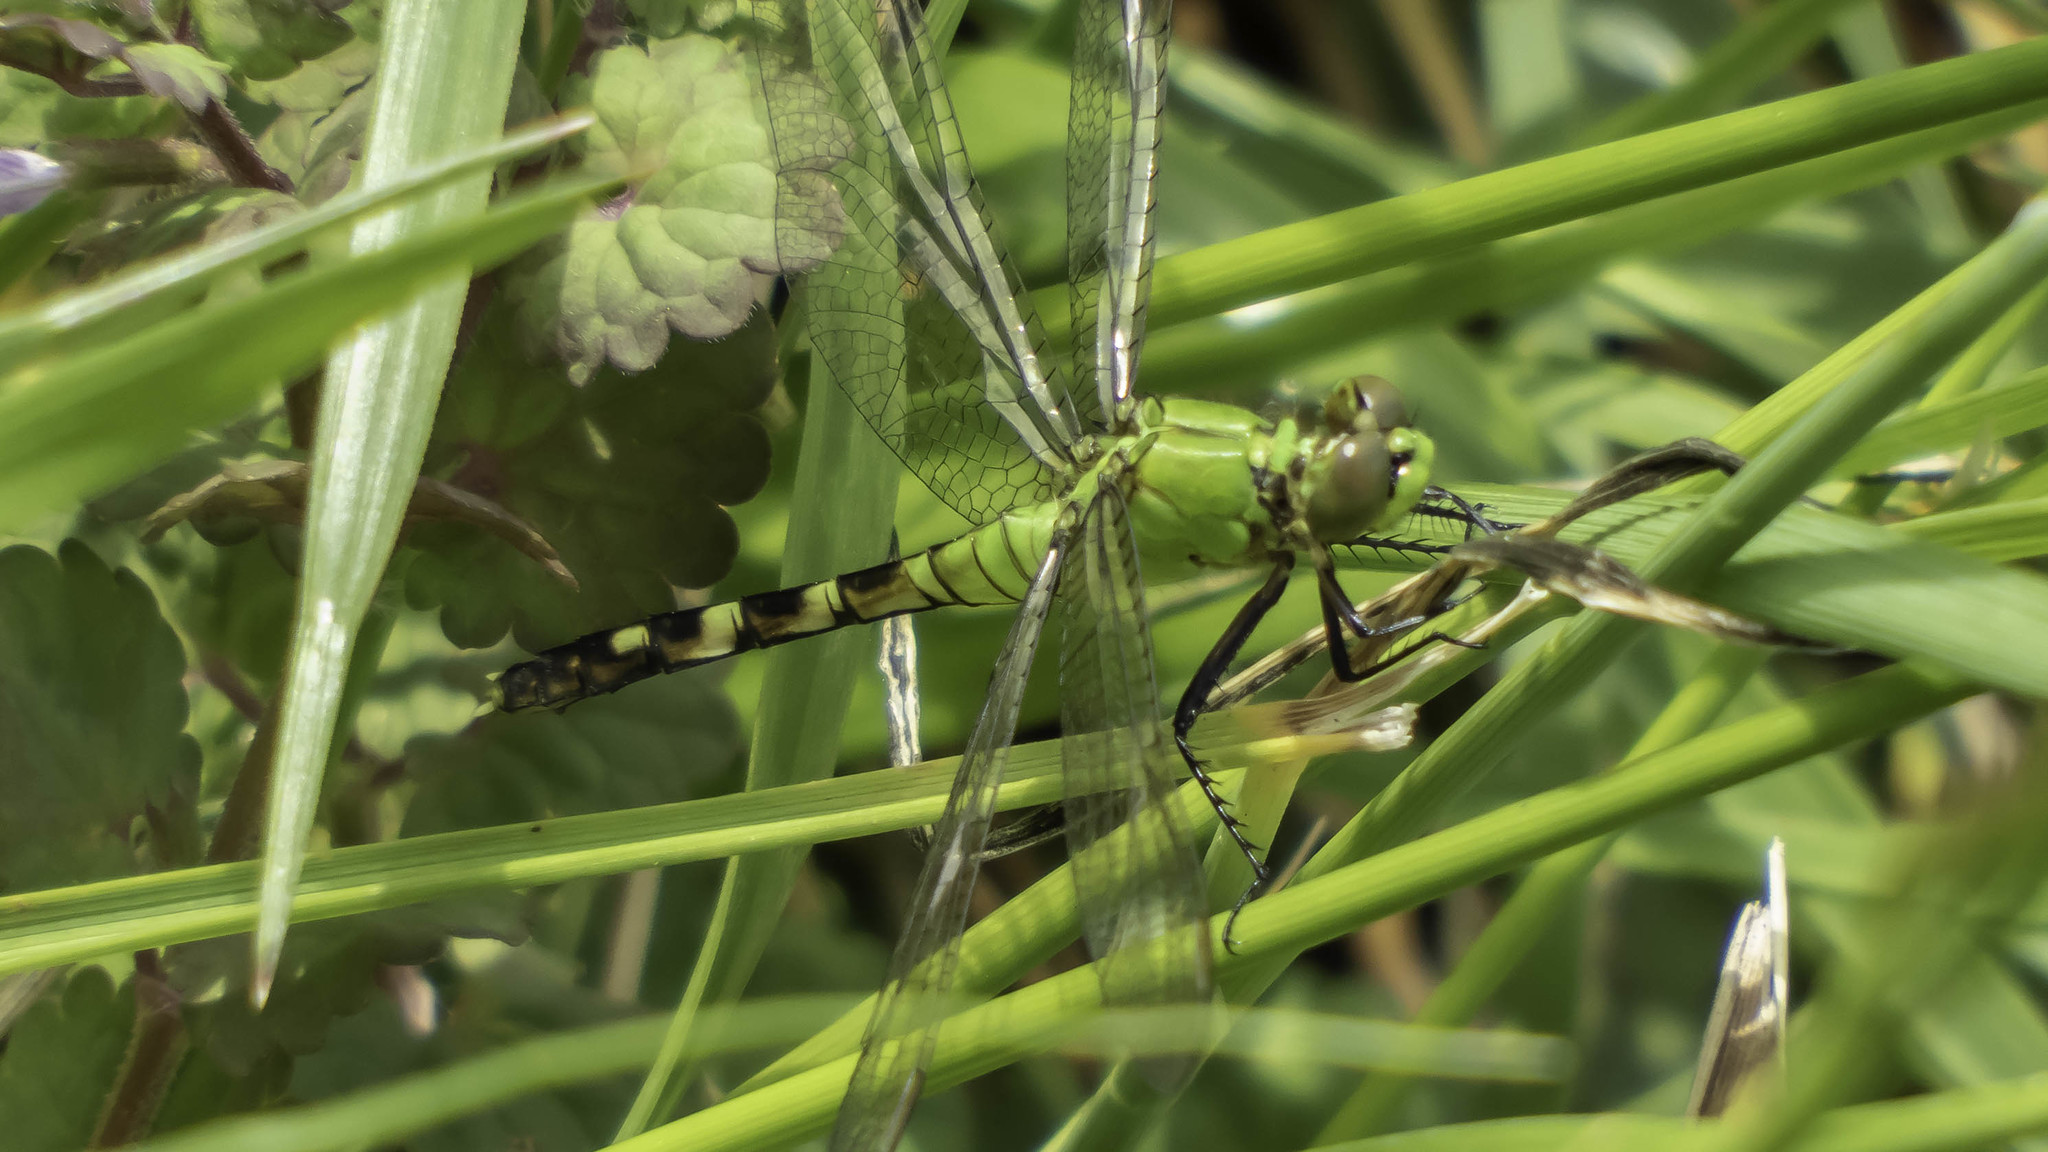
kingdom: Animalia
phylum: Arthropoda
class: Insecta
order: Odonata
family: Libellulidae
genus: Erythemis
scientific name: Erythemis simplicicollis
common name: Eastern pondhawk
